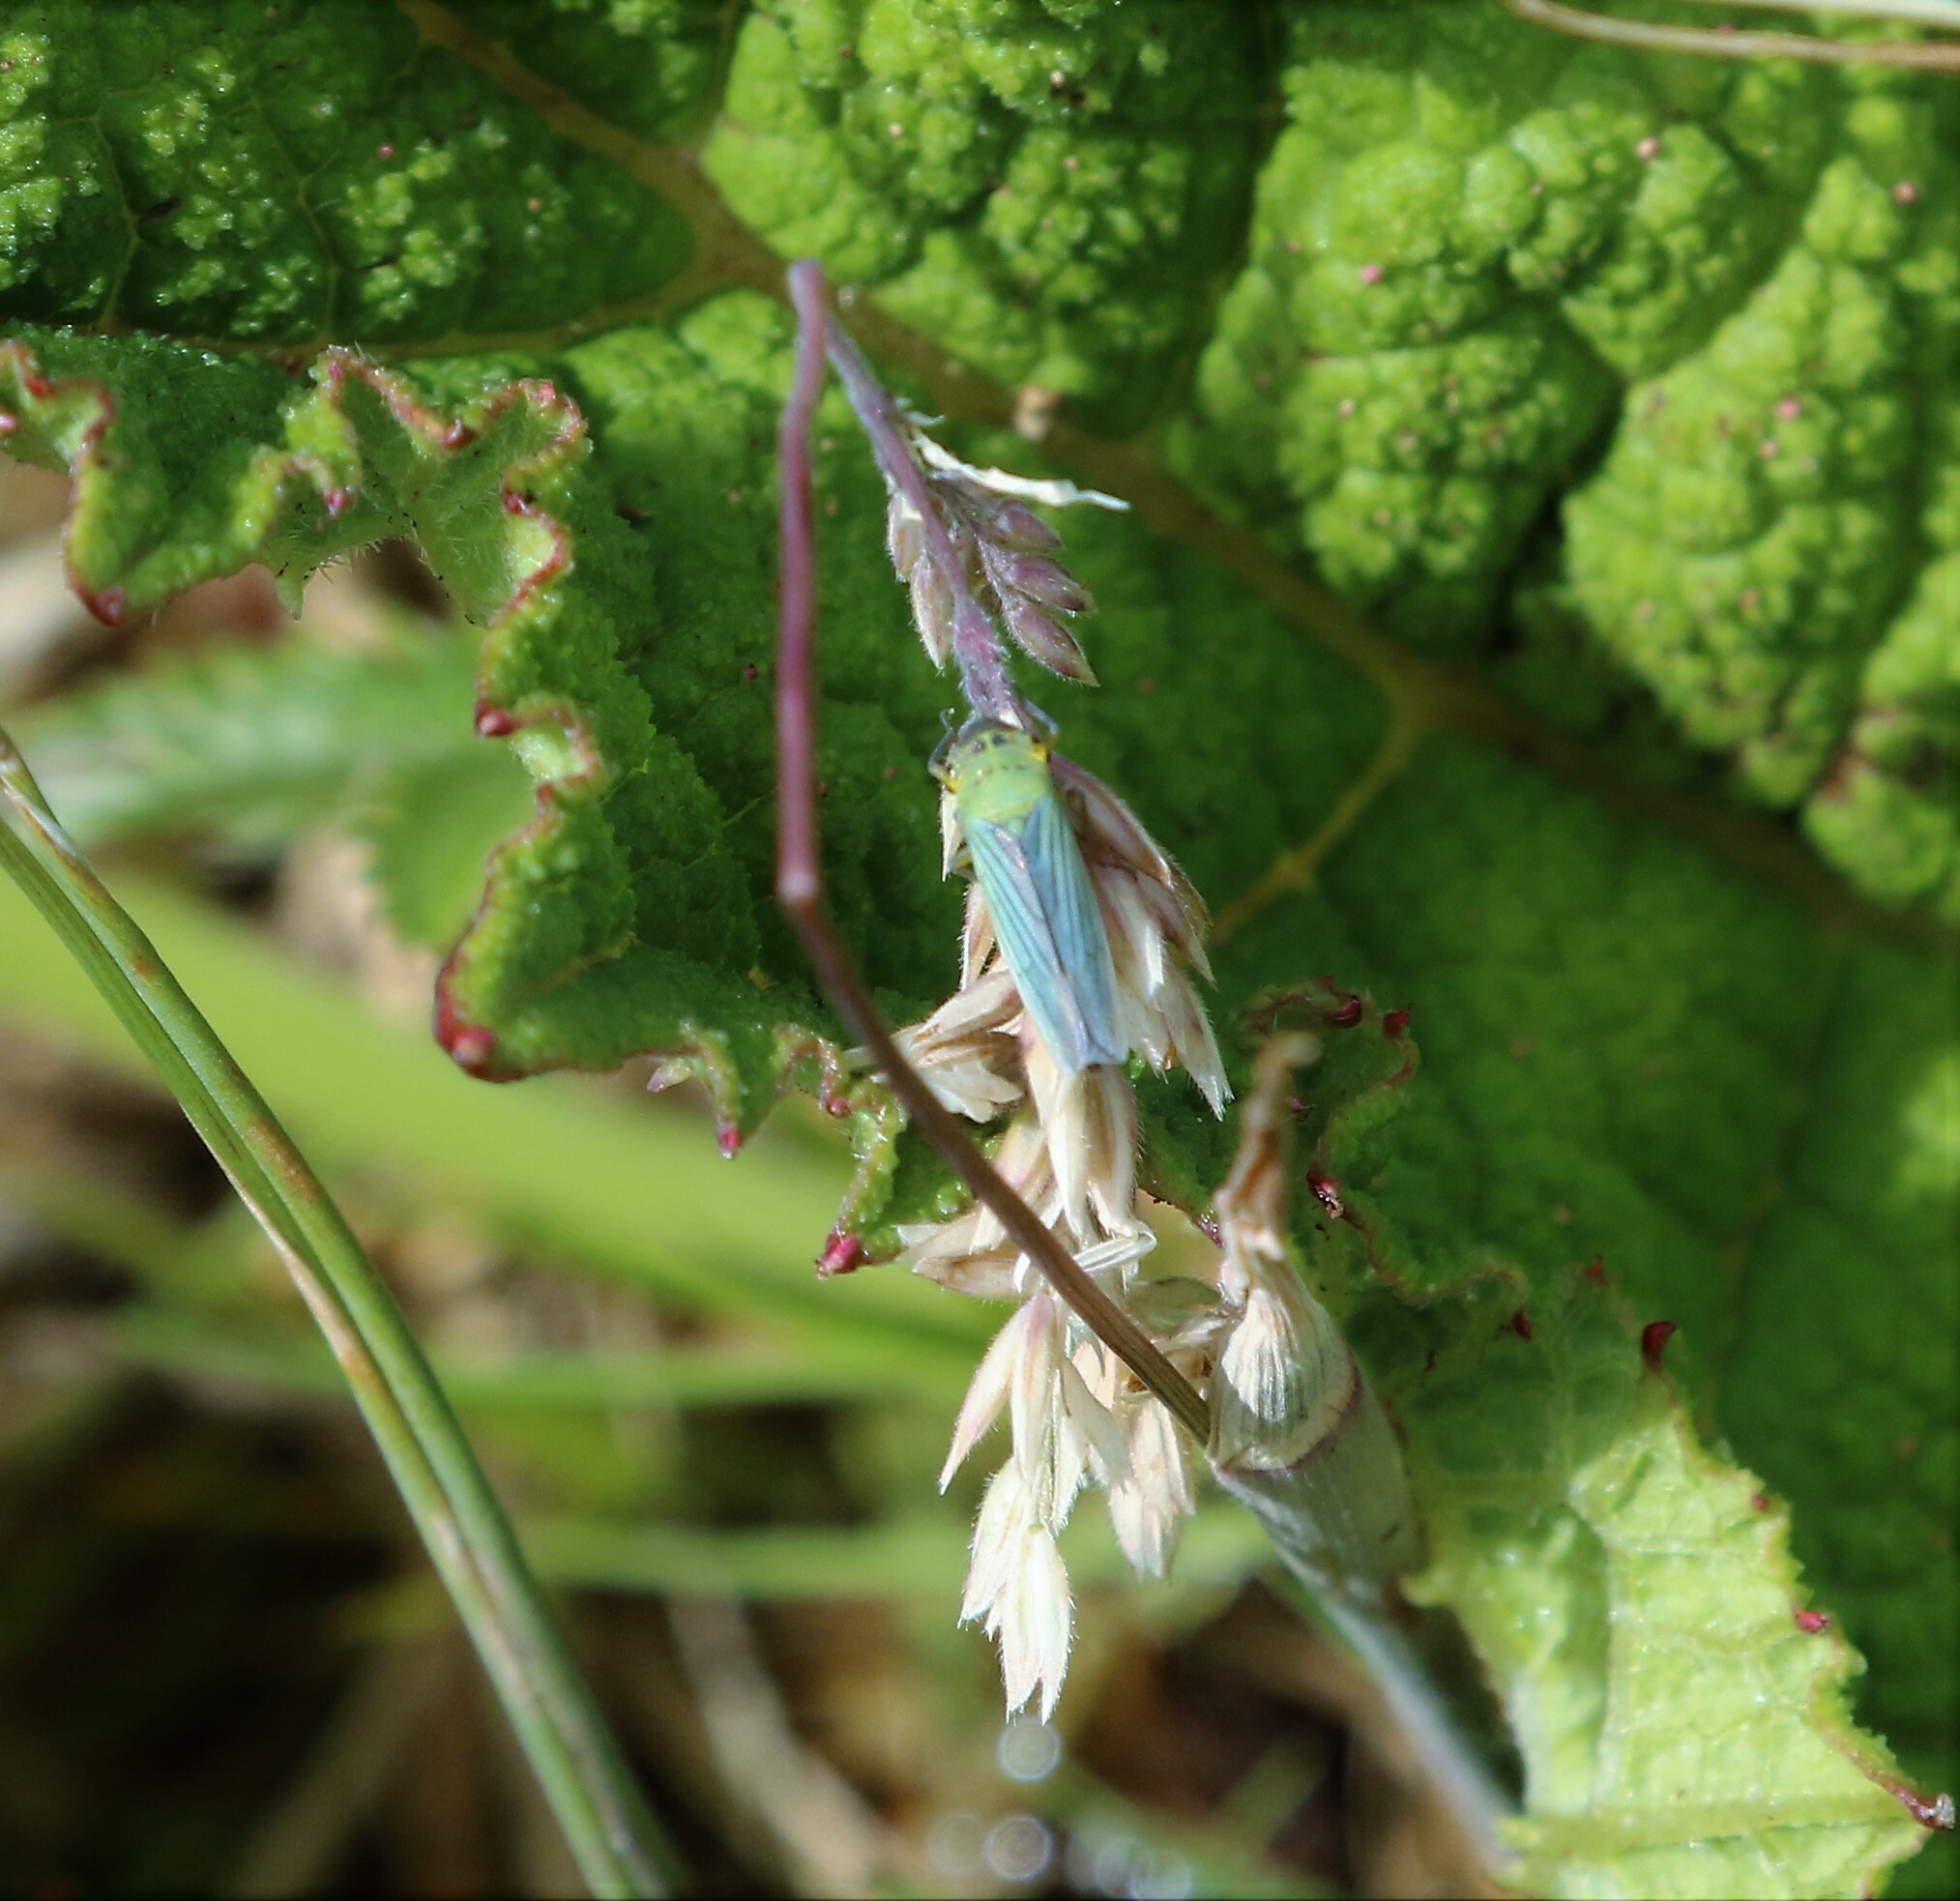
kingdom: Animalia
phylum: Arthropoda
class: Insecta
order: Hemiptera
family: Cicadellidae
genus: Cicadella
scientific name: Cicadella viridis
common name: Leafhopper
